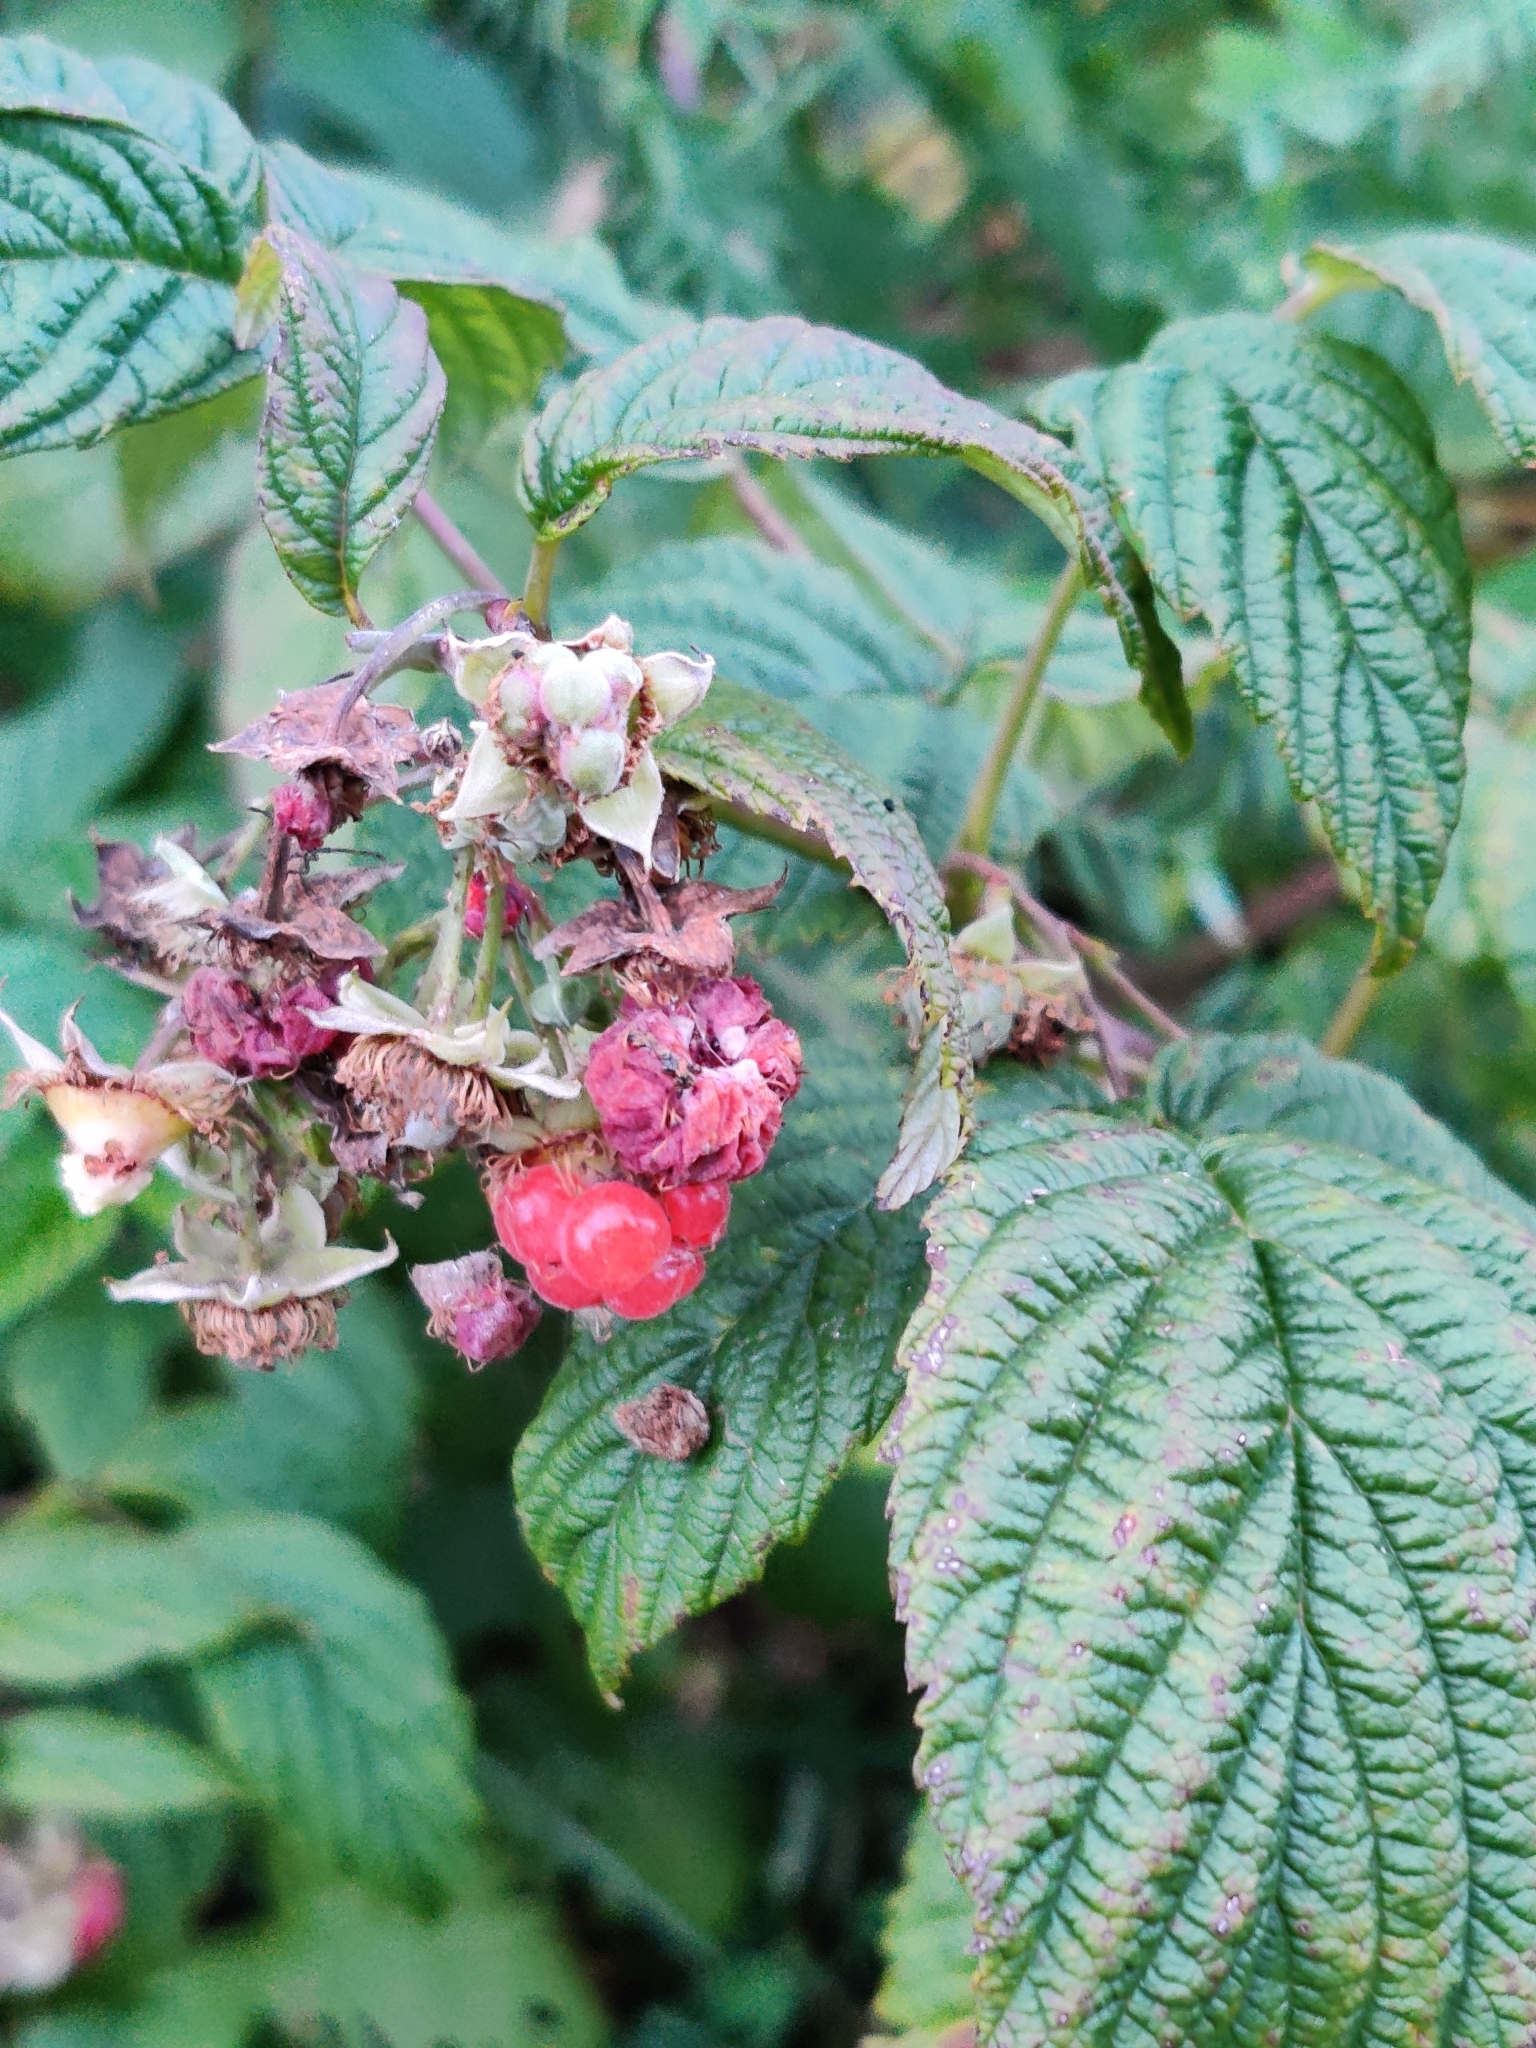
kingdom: Plantae
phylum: Tracheophyta
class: Magnoliopsida
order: Rosales
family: Rosaceae
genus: Rubus
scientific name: Rubus idaeus
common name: Raspberry
